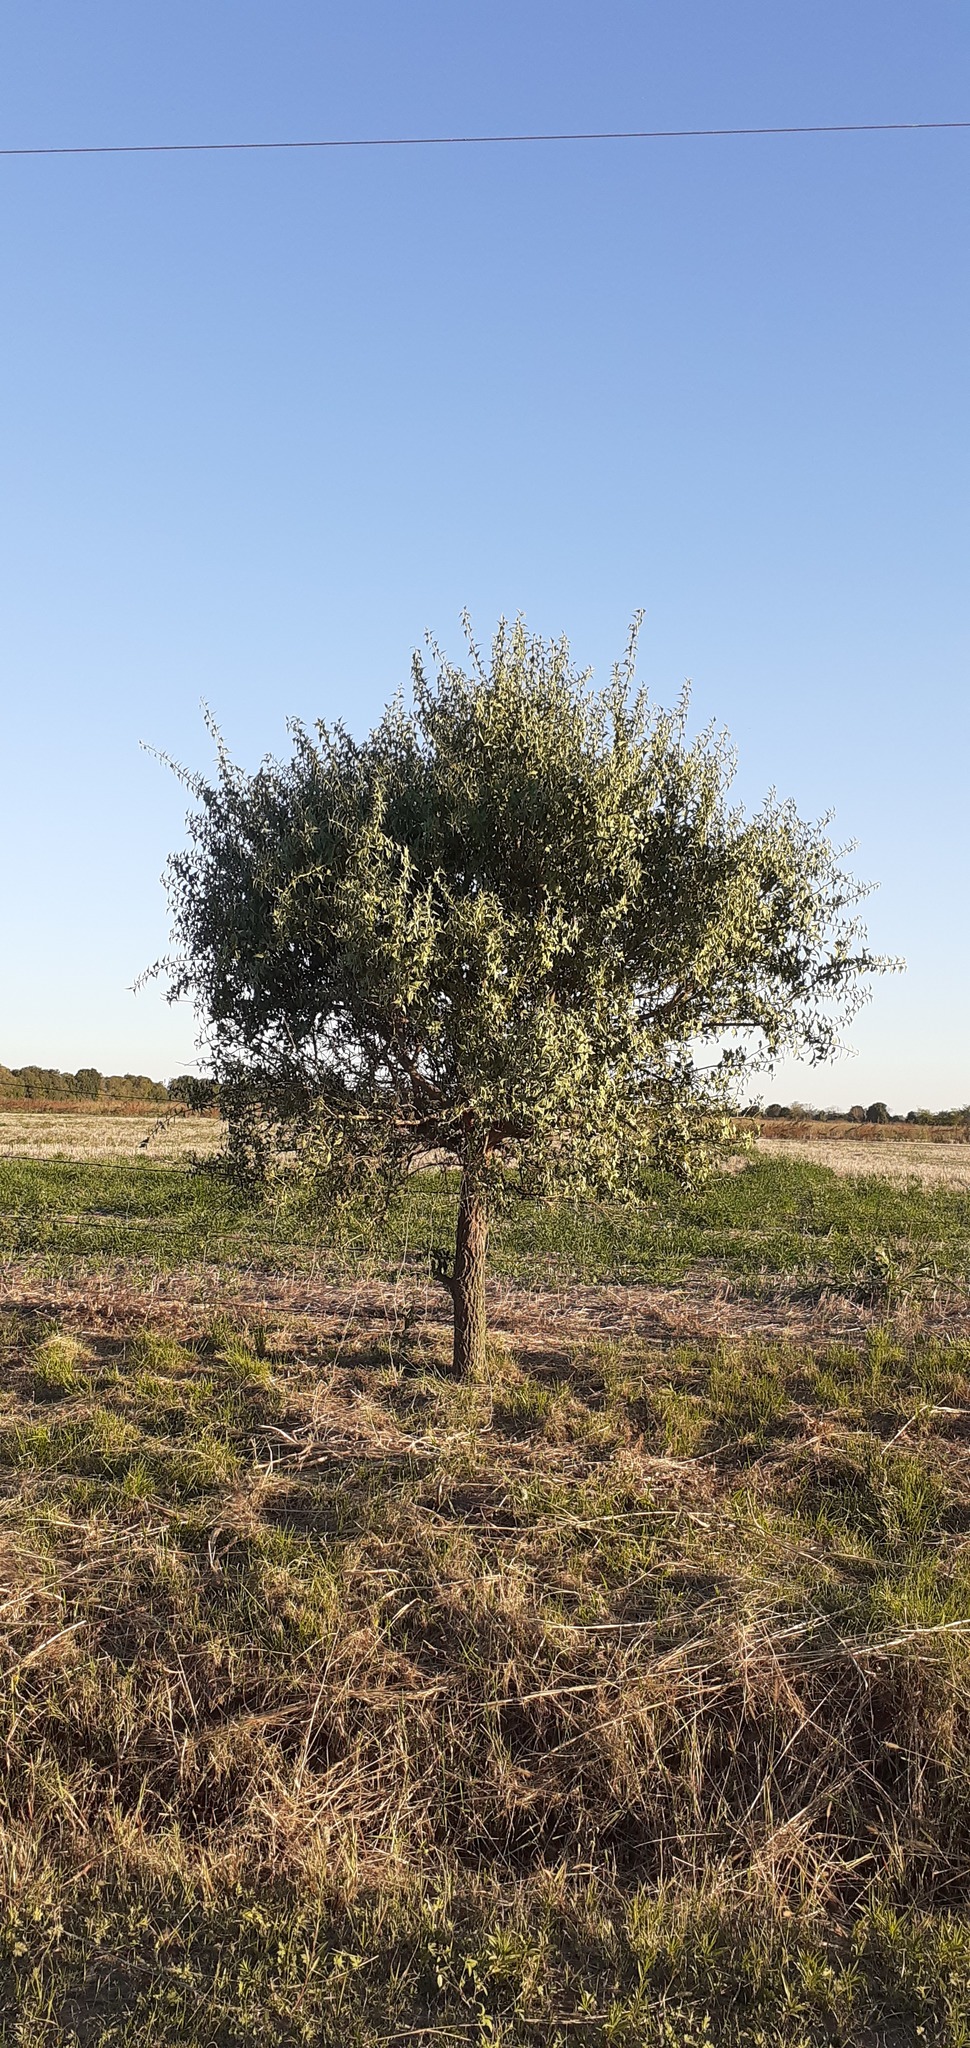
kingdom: Plantae
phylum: Tracheophyta
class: Magnoliopsida
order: Santalales
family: Cervantesiaceae
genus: Jodina
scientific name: Jodina rhombifolia
